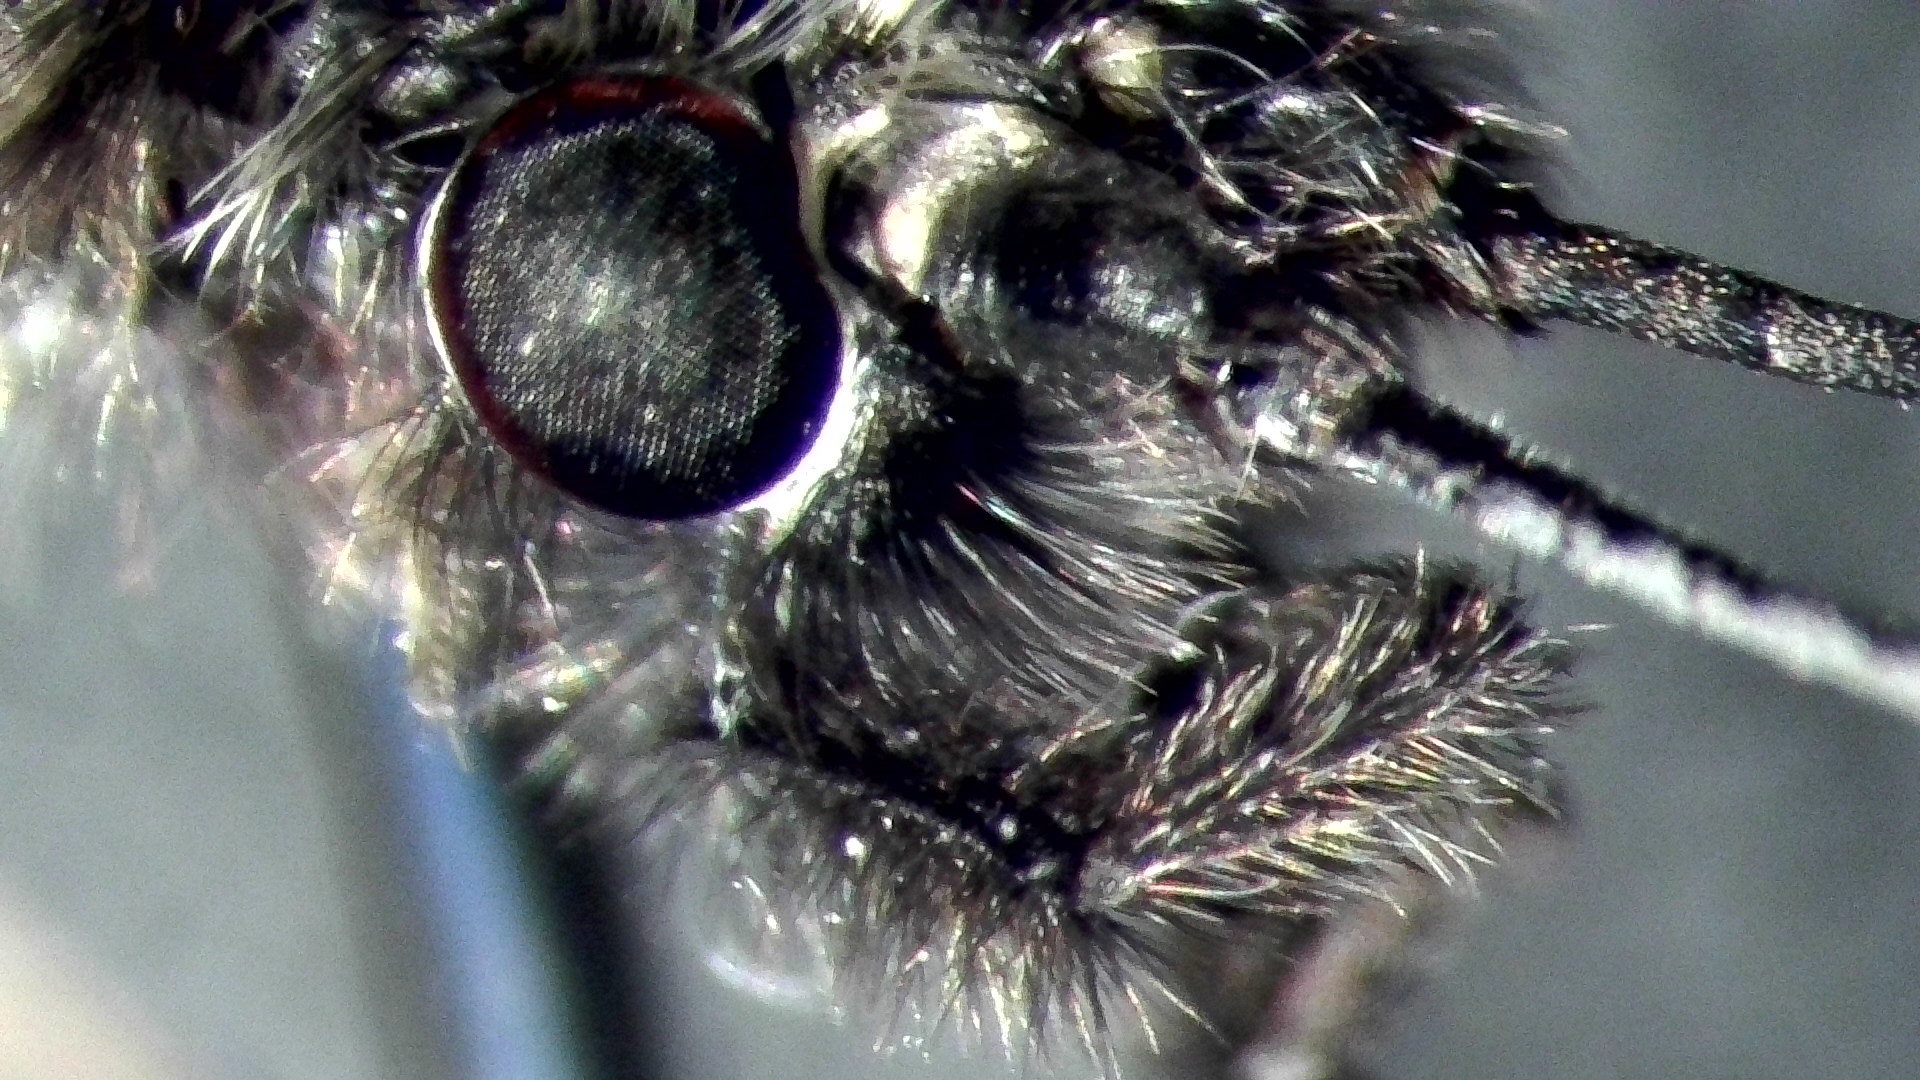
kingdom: Animalia
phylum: Arthropoda
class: Insecta
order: Trichoptera
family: Leptoceridae
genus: Ceraclea
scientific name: Ceraclea nigronervosa
